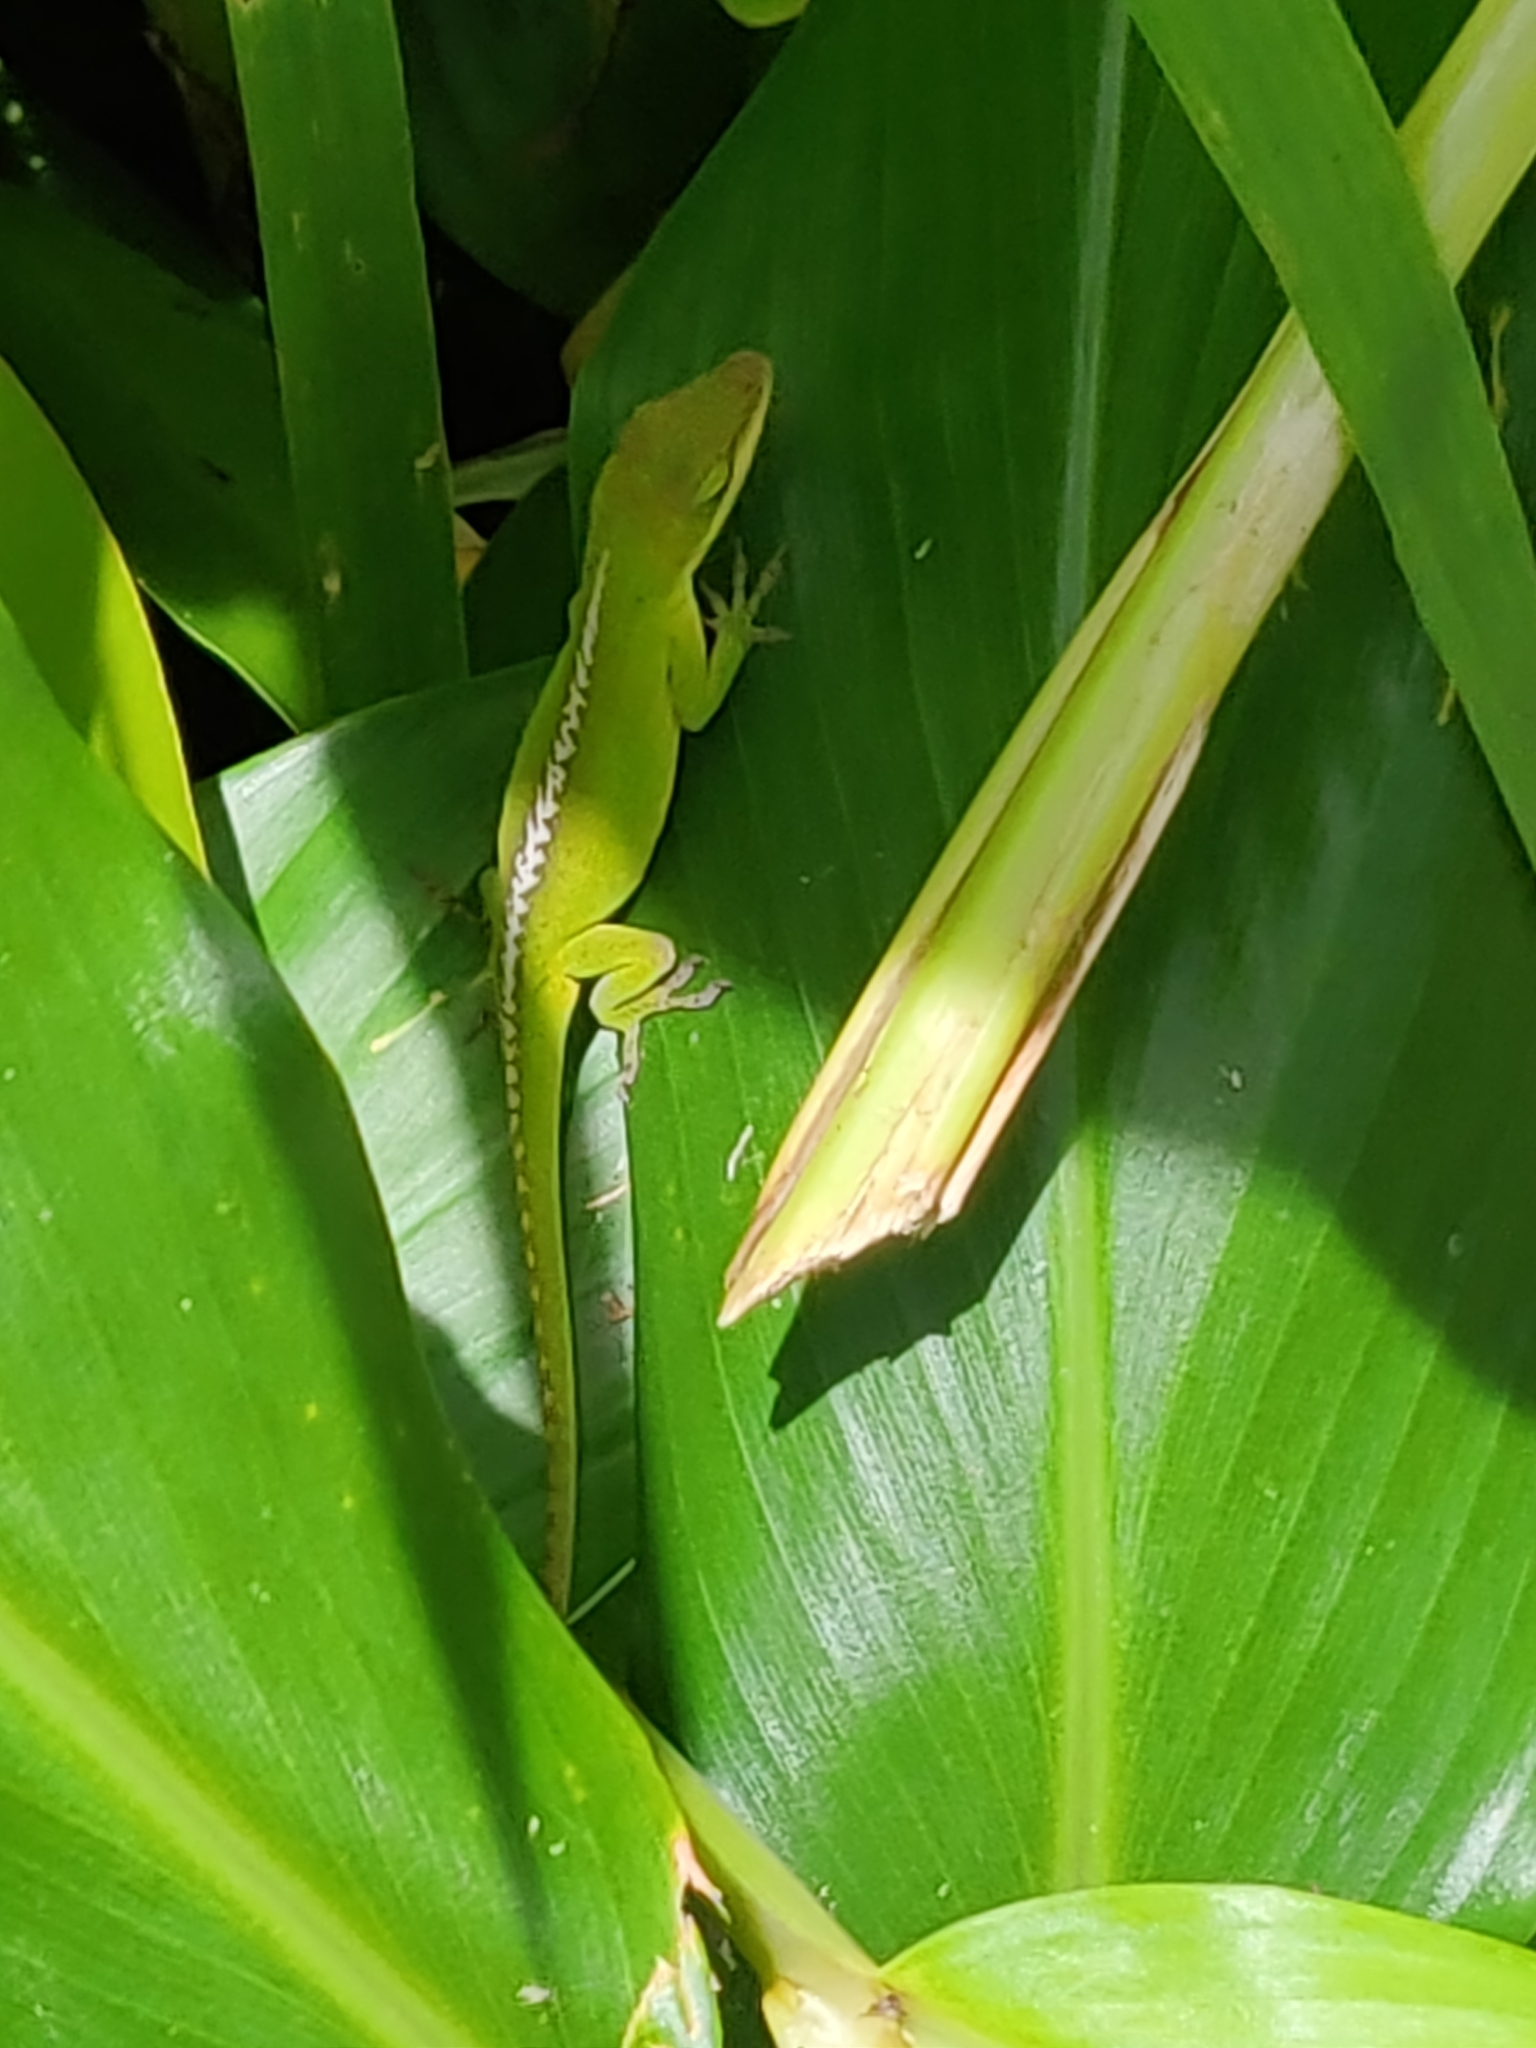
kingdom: Animalia
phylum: Chordata
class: Squamata
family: Dactyloidae
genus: Anolis
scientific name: Anolis carolinensis
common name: Green anole
